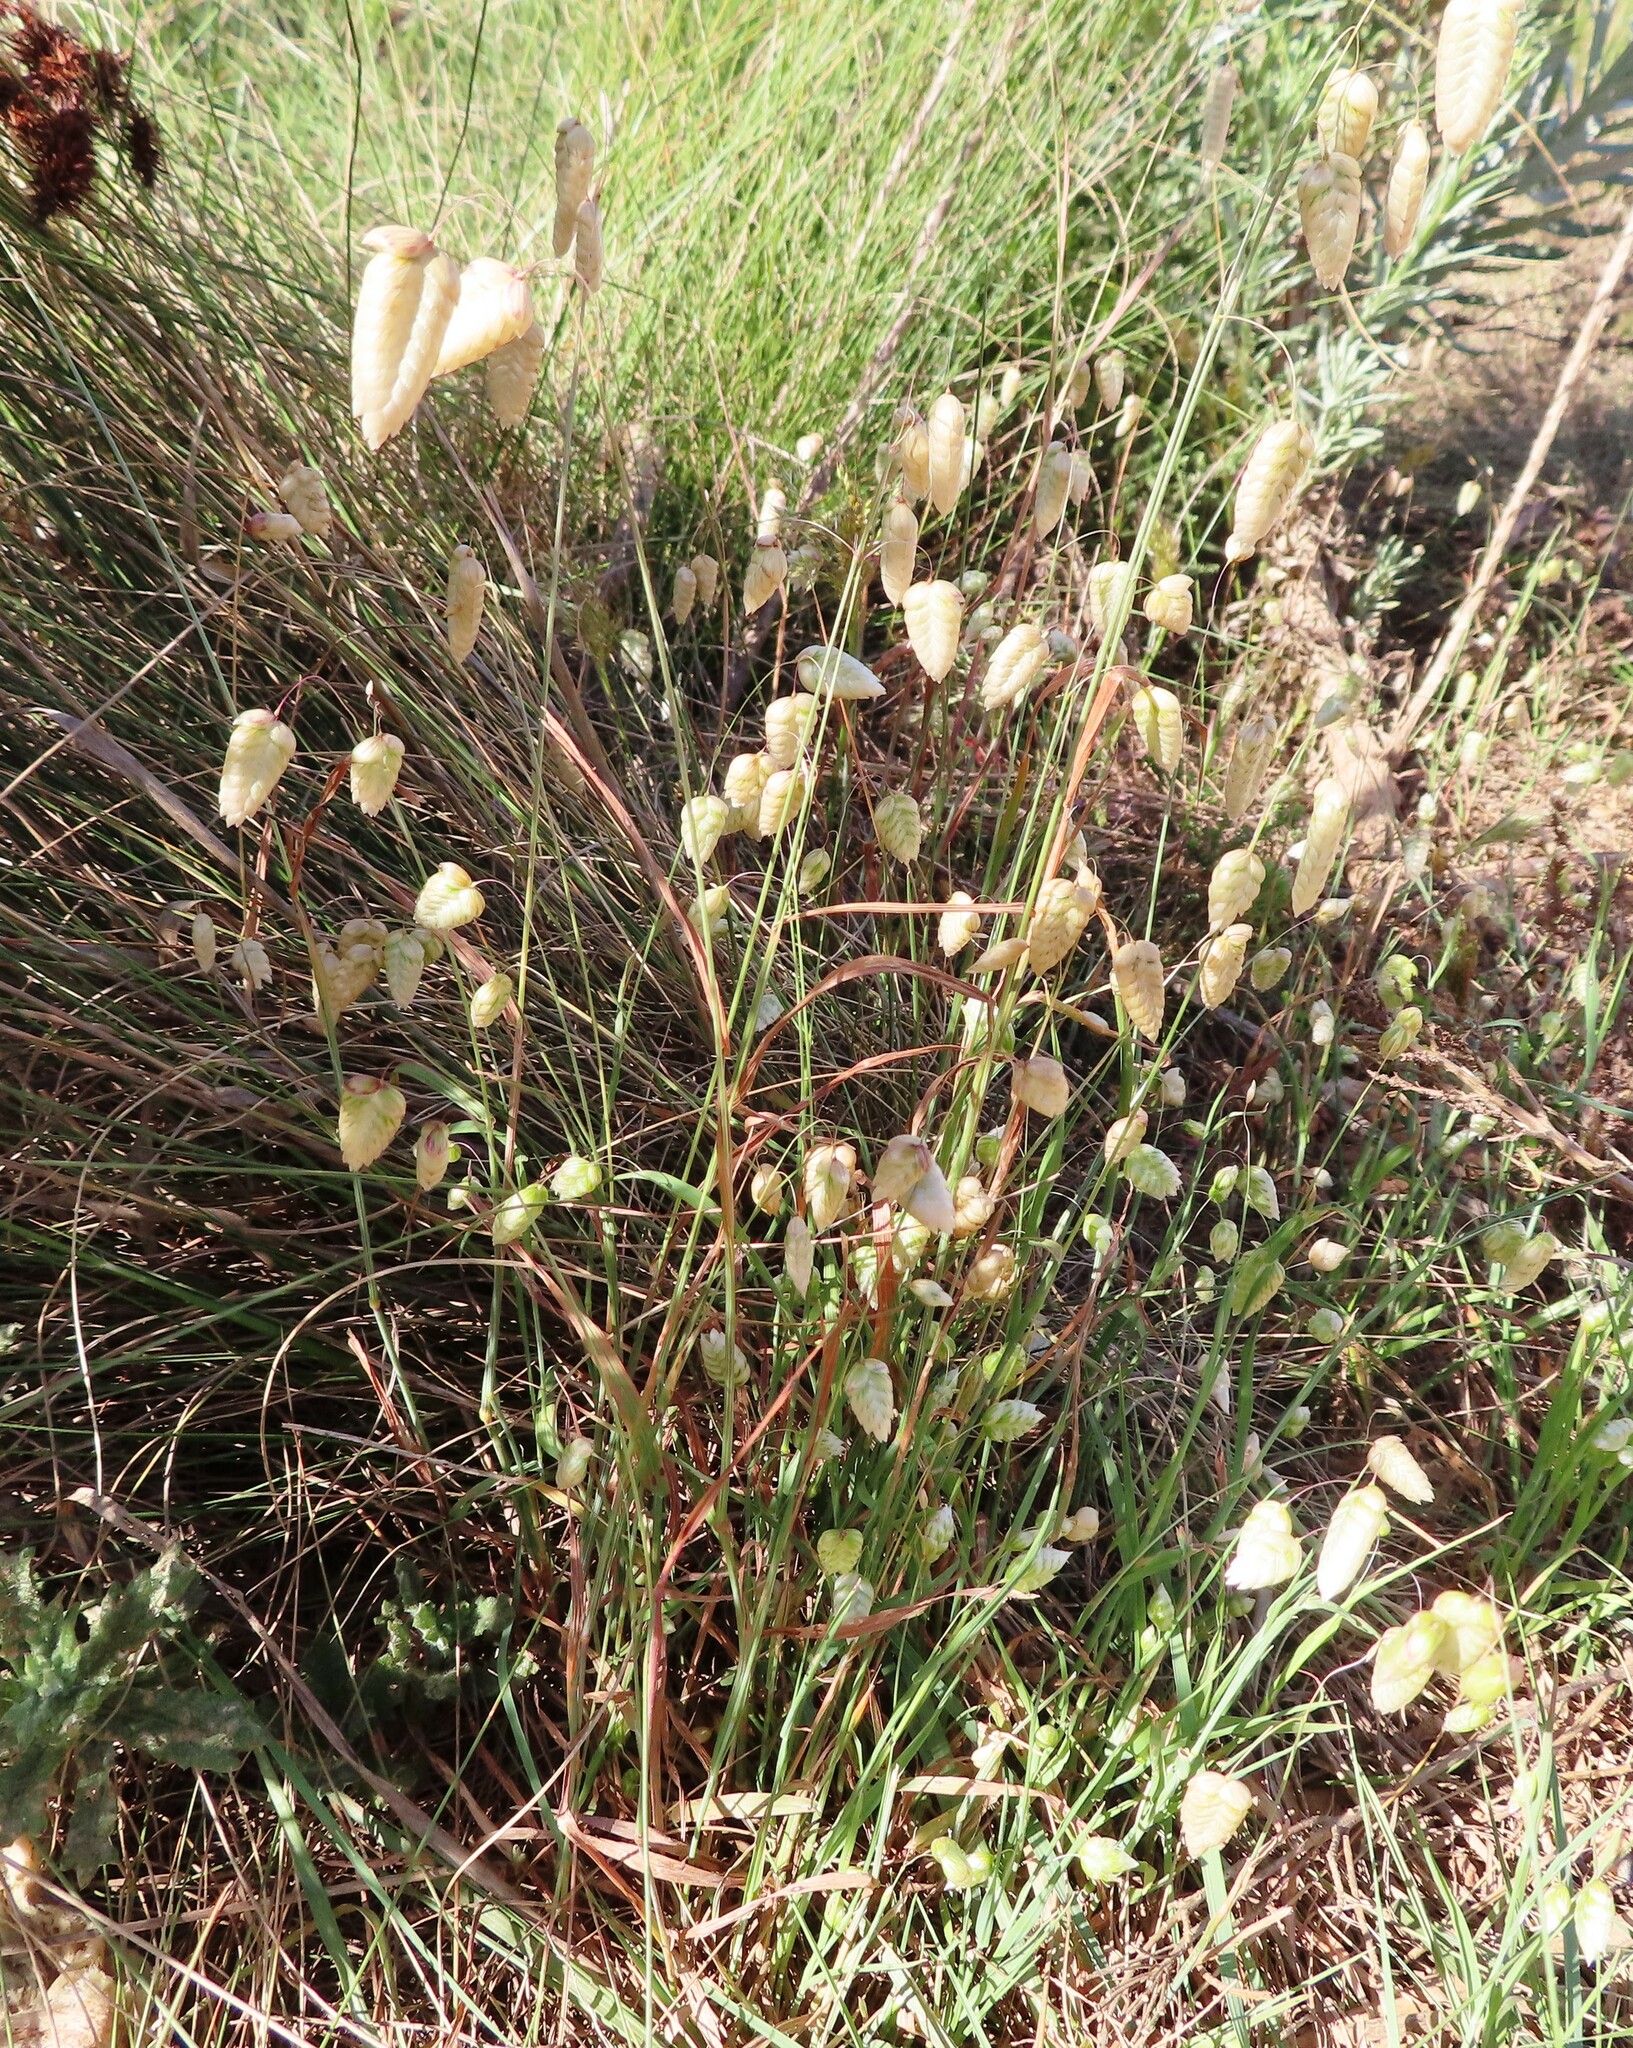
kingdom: Plantae
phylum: Tracheophyta
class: Liliopsida
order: Poales
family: Poaceae
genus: Briza
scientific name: Briza maxima
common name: Big quakinggrass
